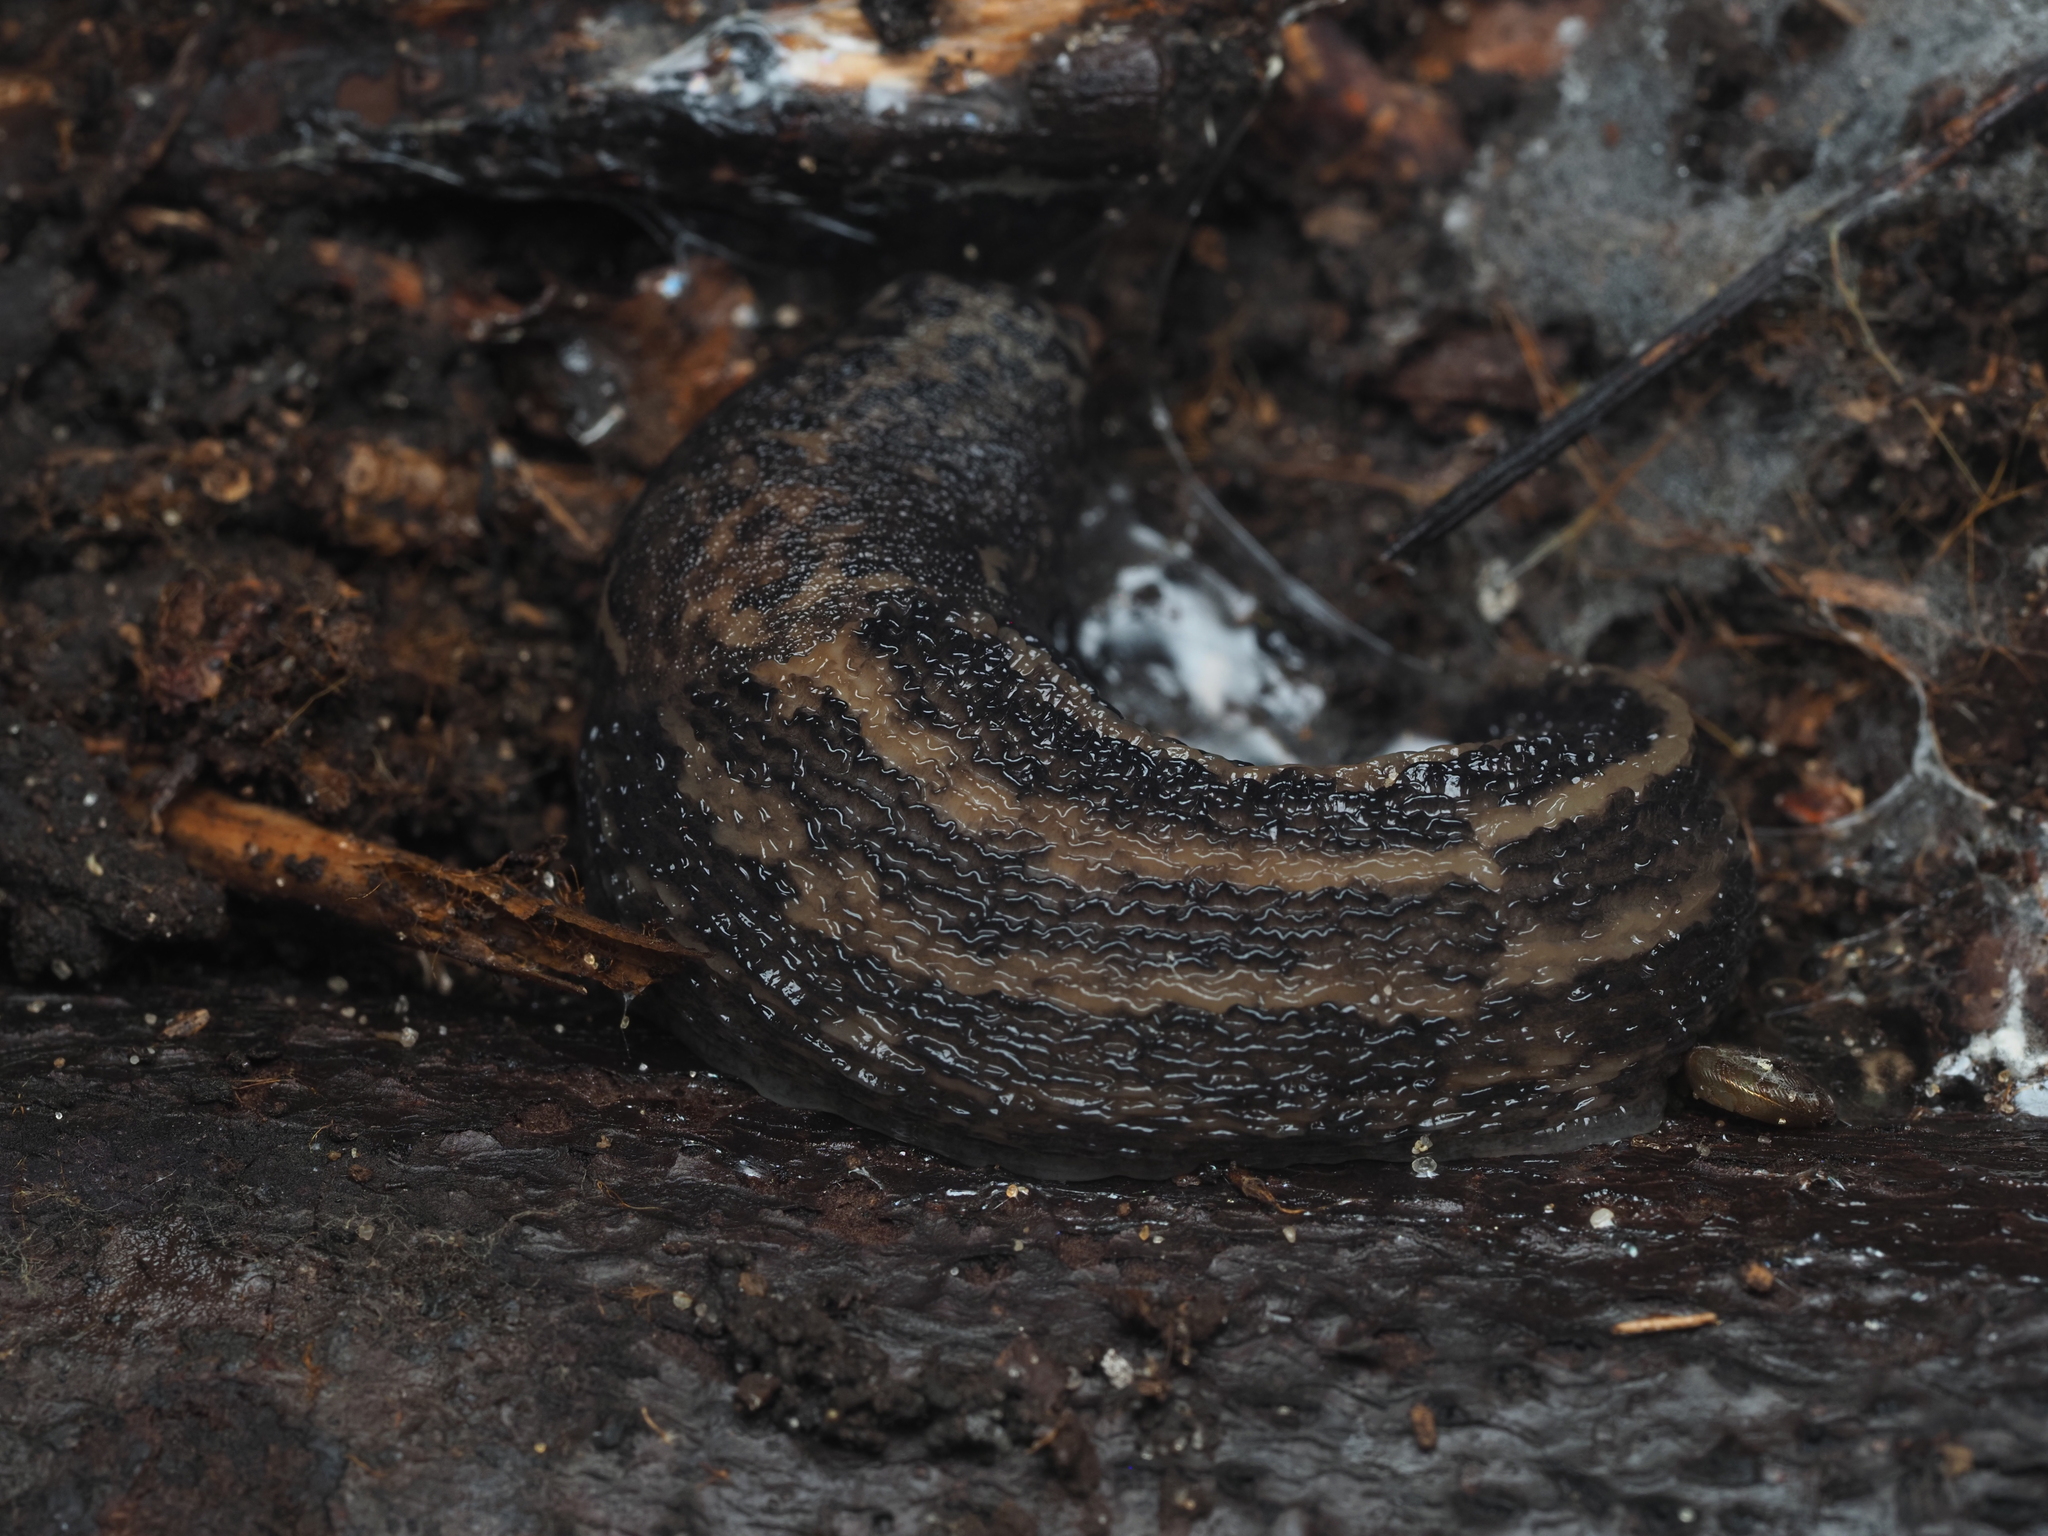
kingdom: Animalia
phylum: Mollusca
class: Gastropoda
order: Stylommatophora
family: Limacidae
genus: Limax
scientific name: Limax maximus
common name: Great grey slug
